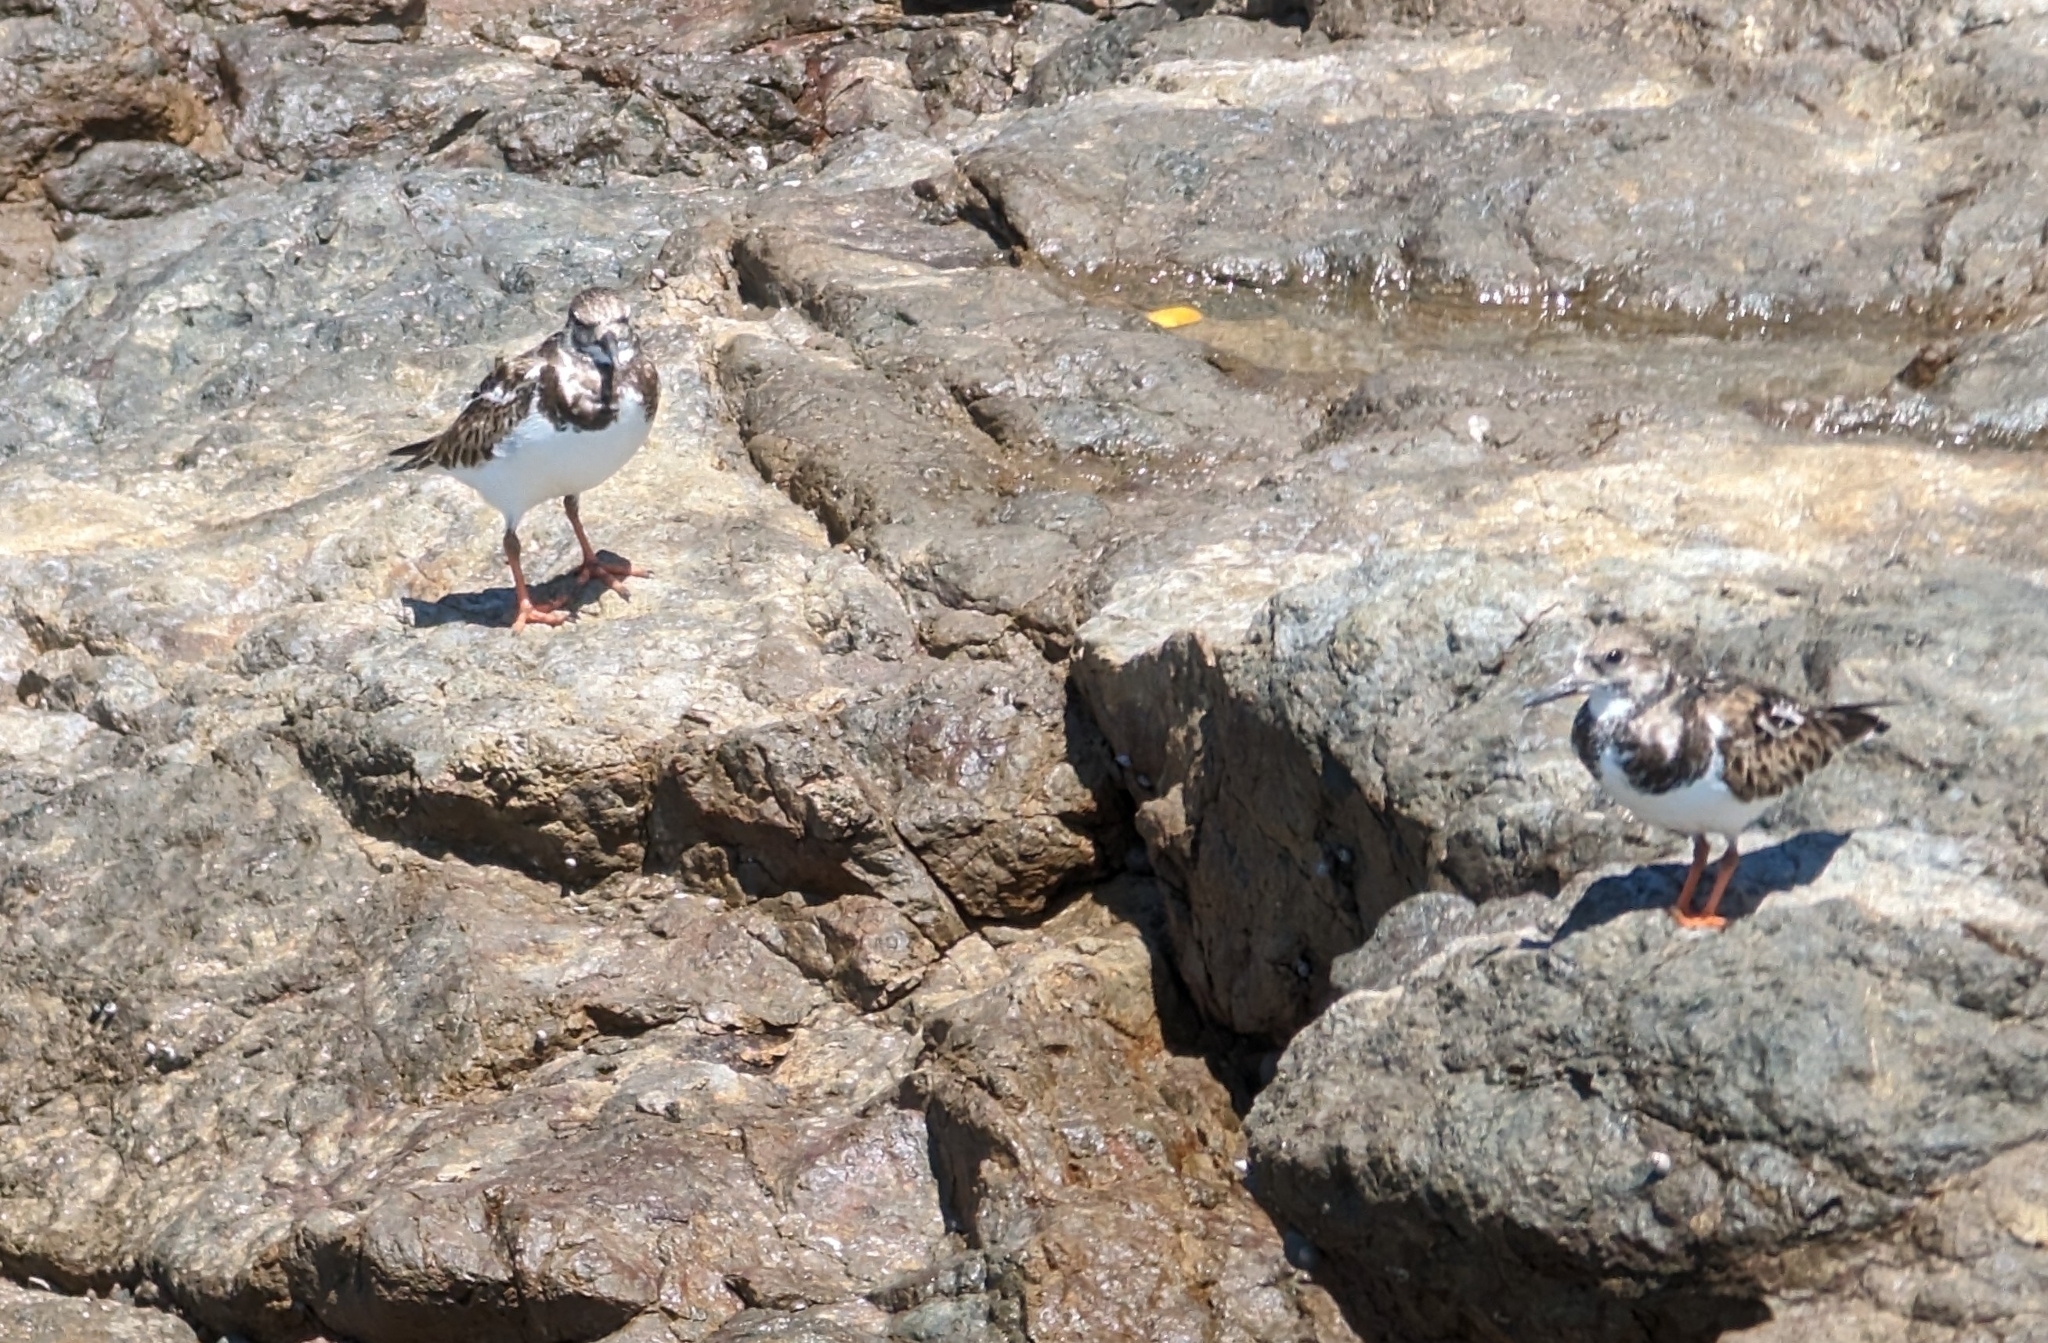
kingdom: Animalia
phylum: Chordata
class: Aves
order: Charadriiformes
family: Scolopacidae
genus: Arenaria
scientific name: Arenaria interpres
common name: Ruddy turnstone
